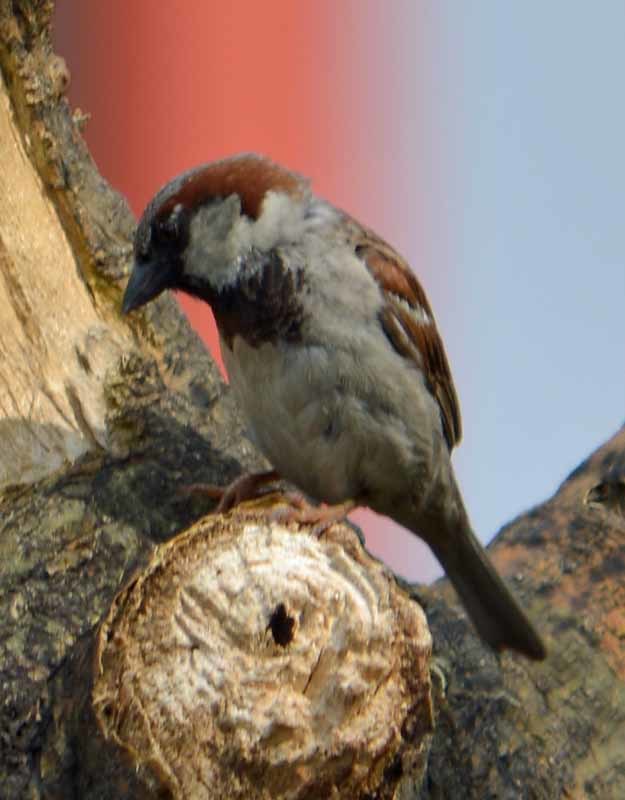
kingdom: Animalia
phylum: Chordata
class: Aves
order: Passeriformes
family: Passeridae
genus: Passer
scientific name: Passer domesticus
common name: House sparrow
